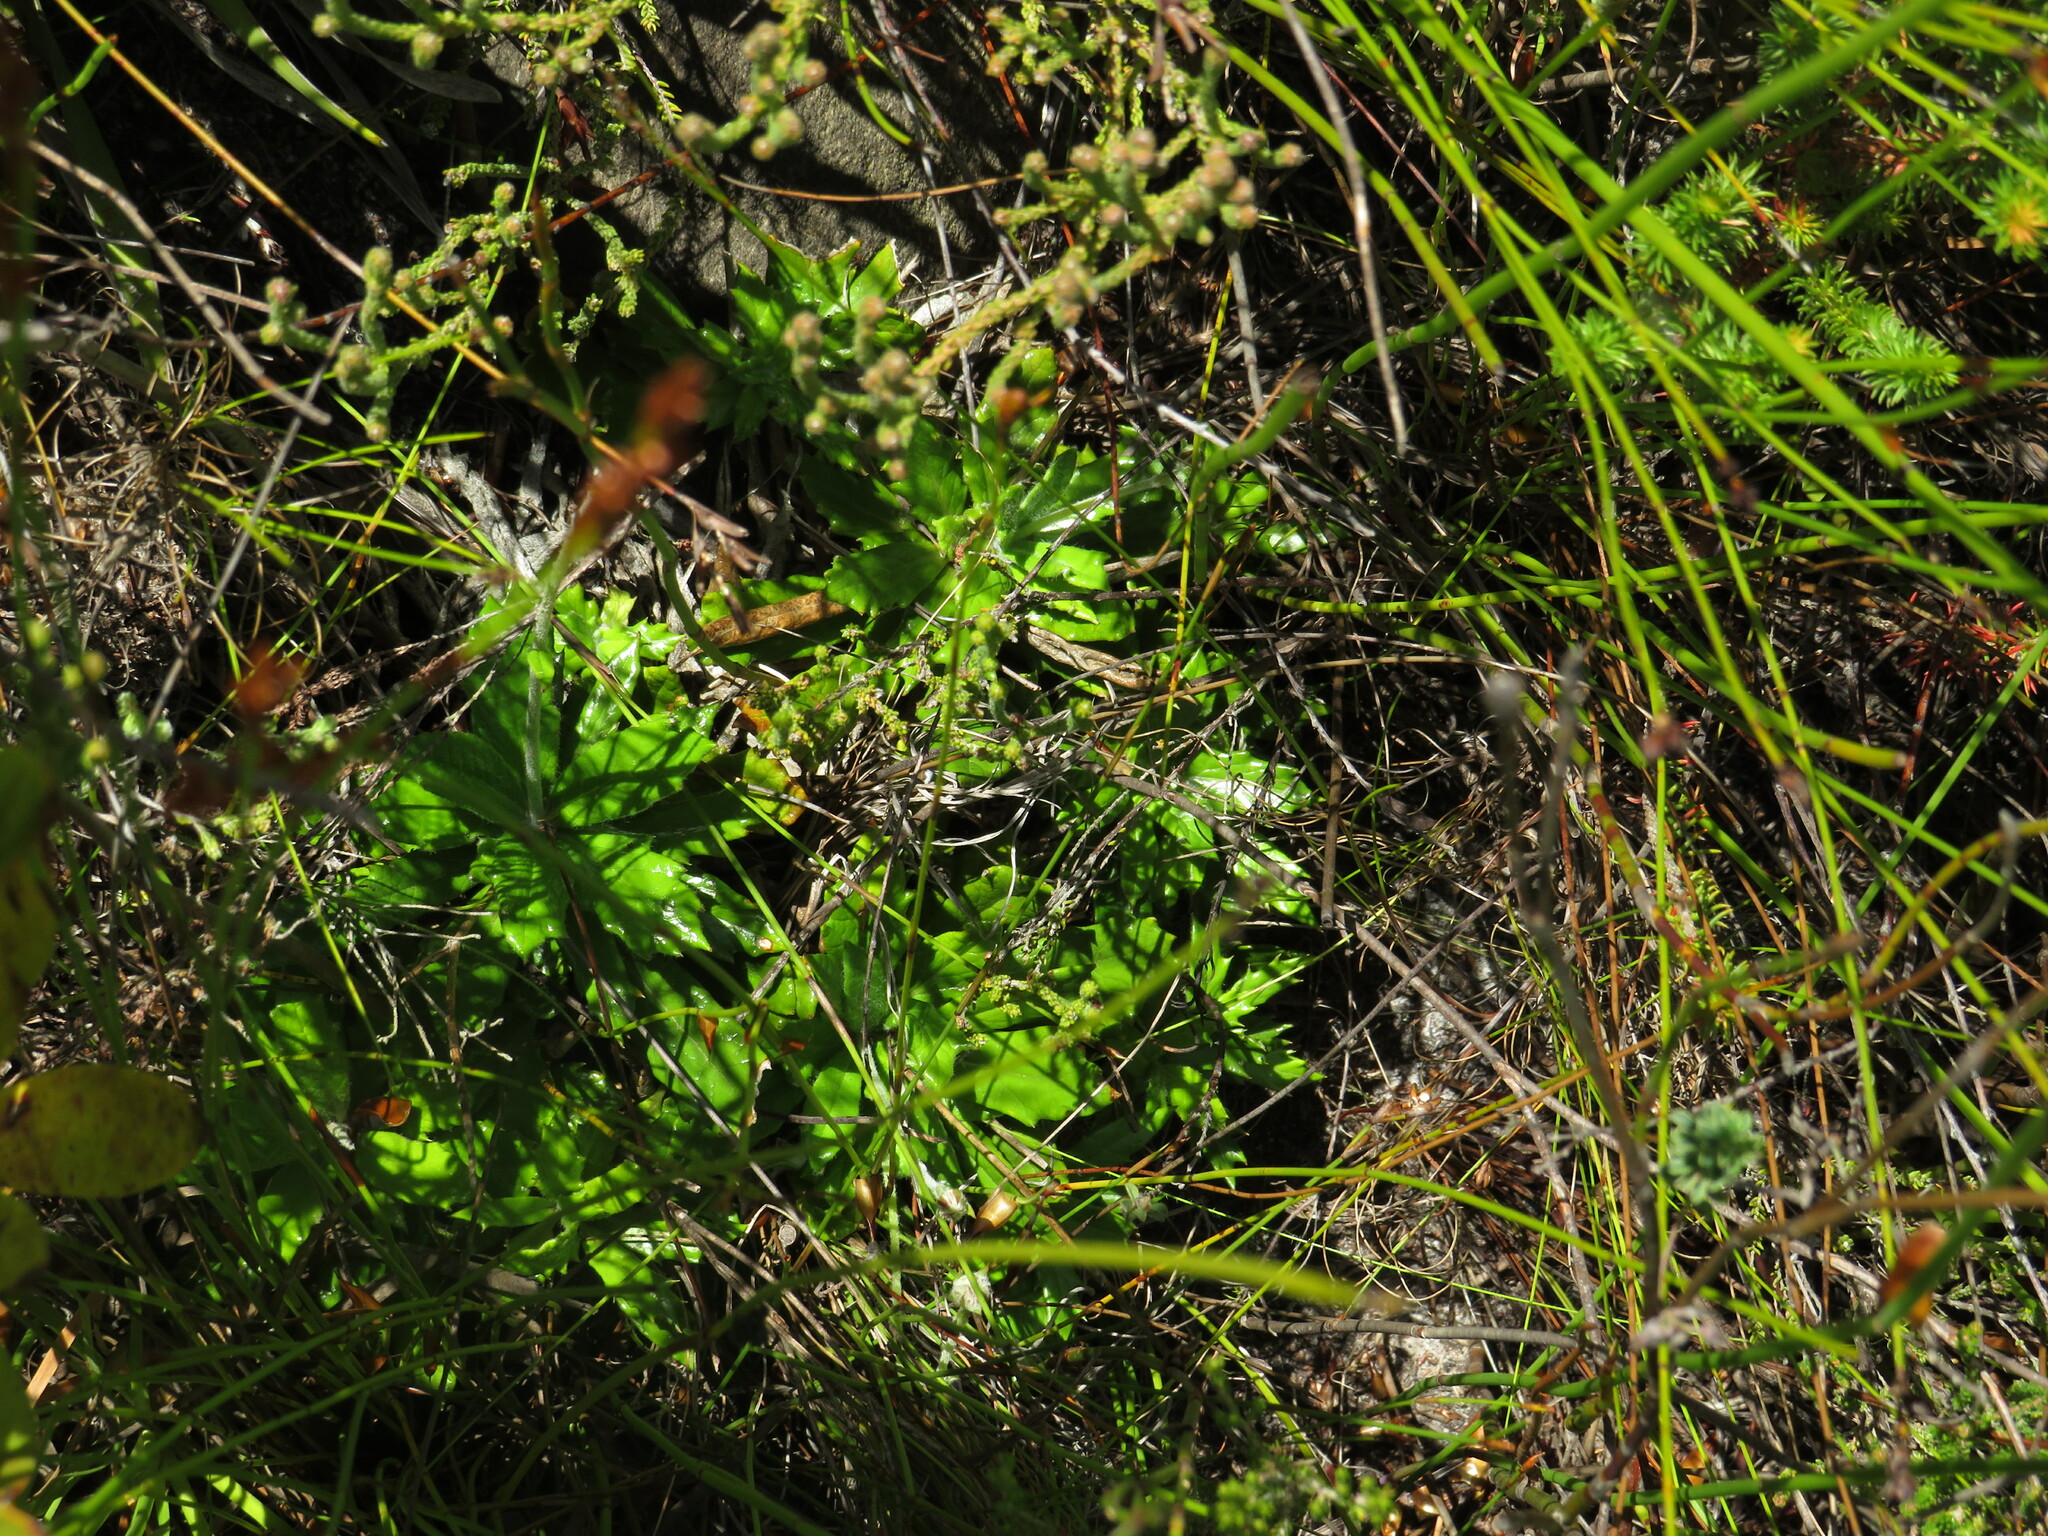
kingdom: Plantae
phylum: Tracheophyta
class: Magnoliopsida
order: Apiales
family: Apiaceae
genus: Hermas
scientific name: Hermas quinquedentata
